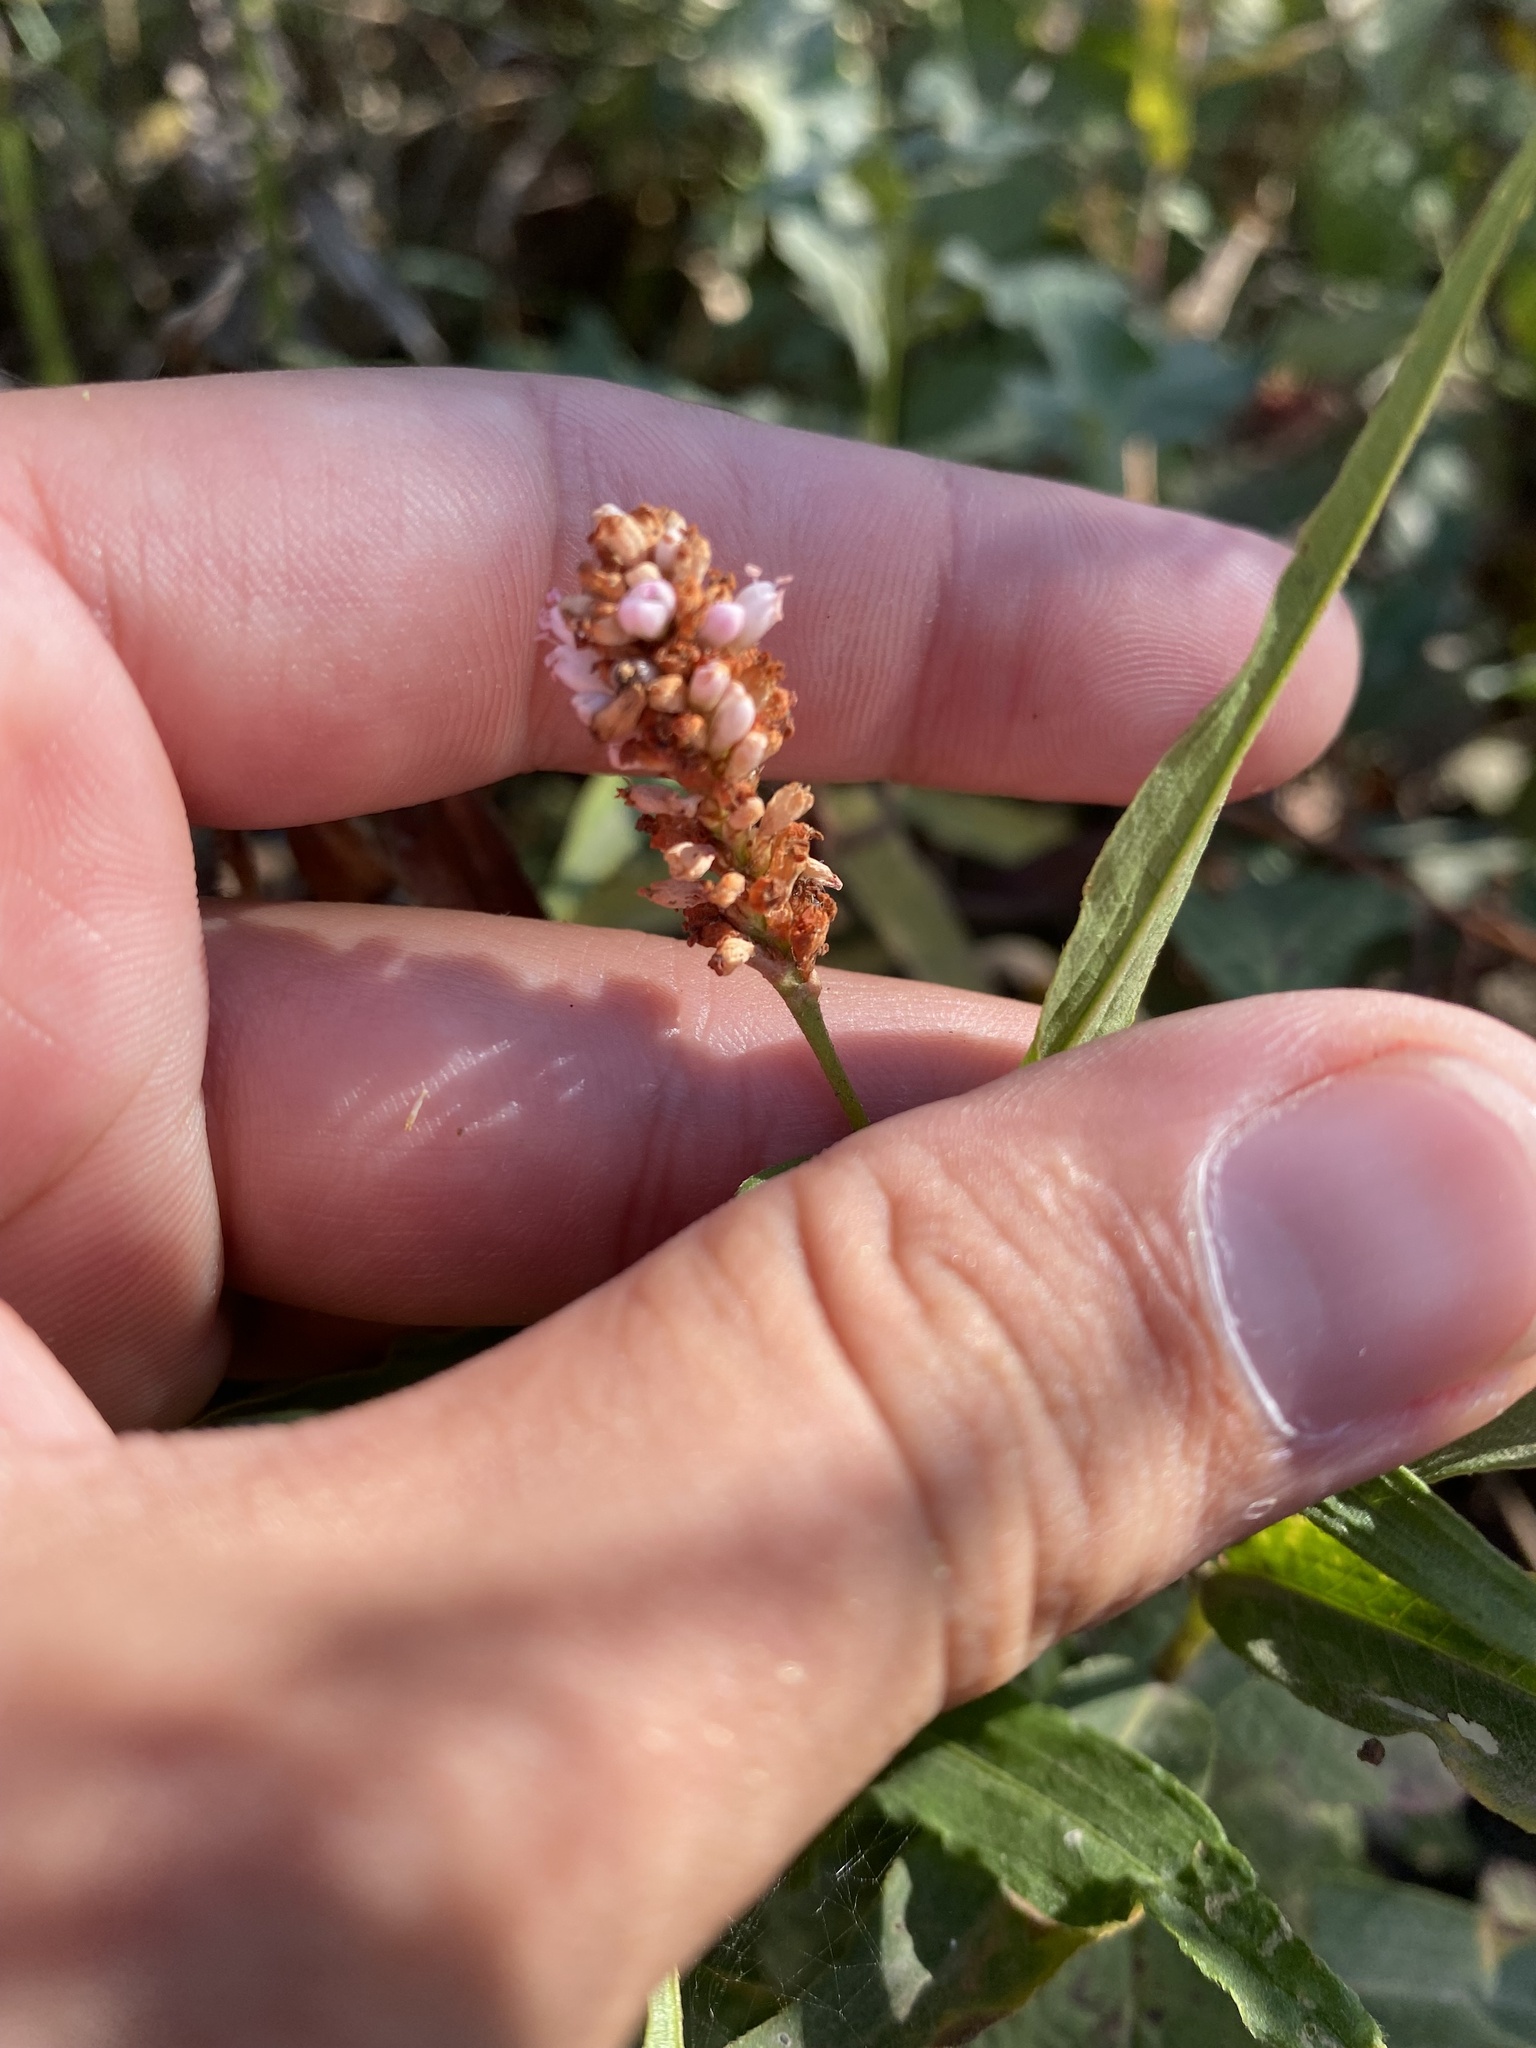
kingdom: Plantae
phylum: Tracheophyta
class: Magnoliopsida
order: Caryophyllales
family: Polygonaceae
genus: Persicaria
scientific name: Persicaria amphibia
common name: Amphibious bistort
